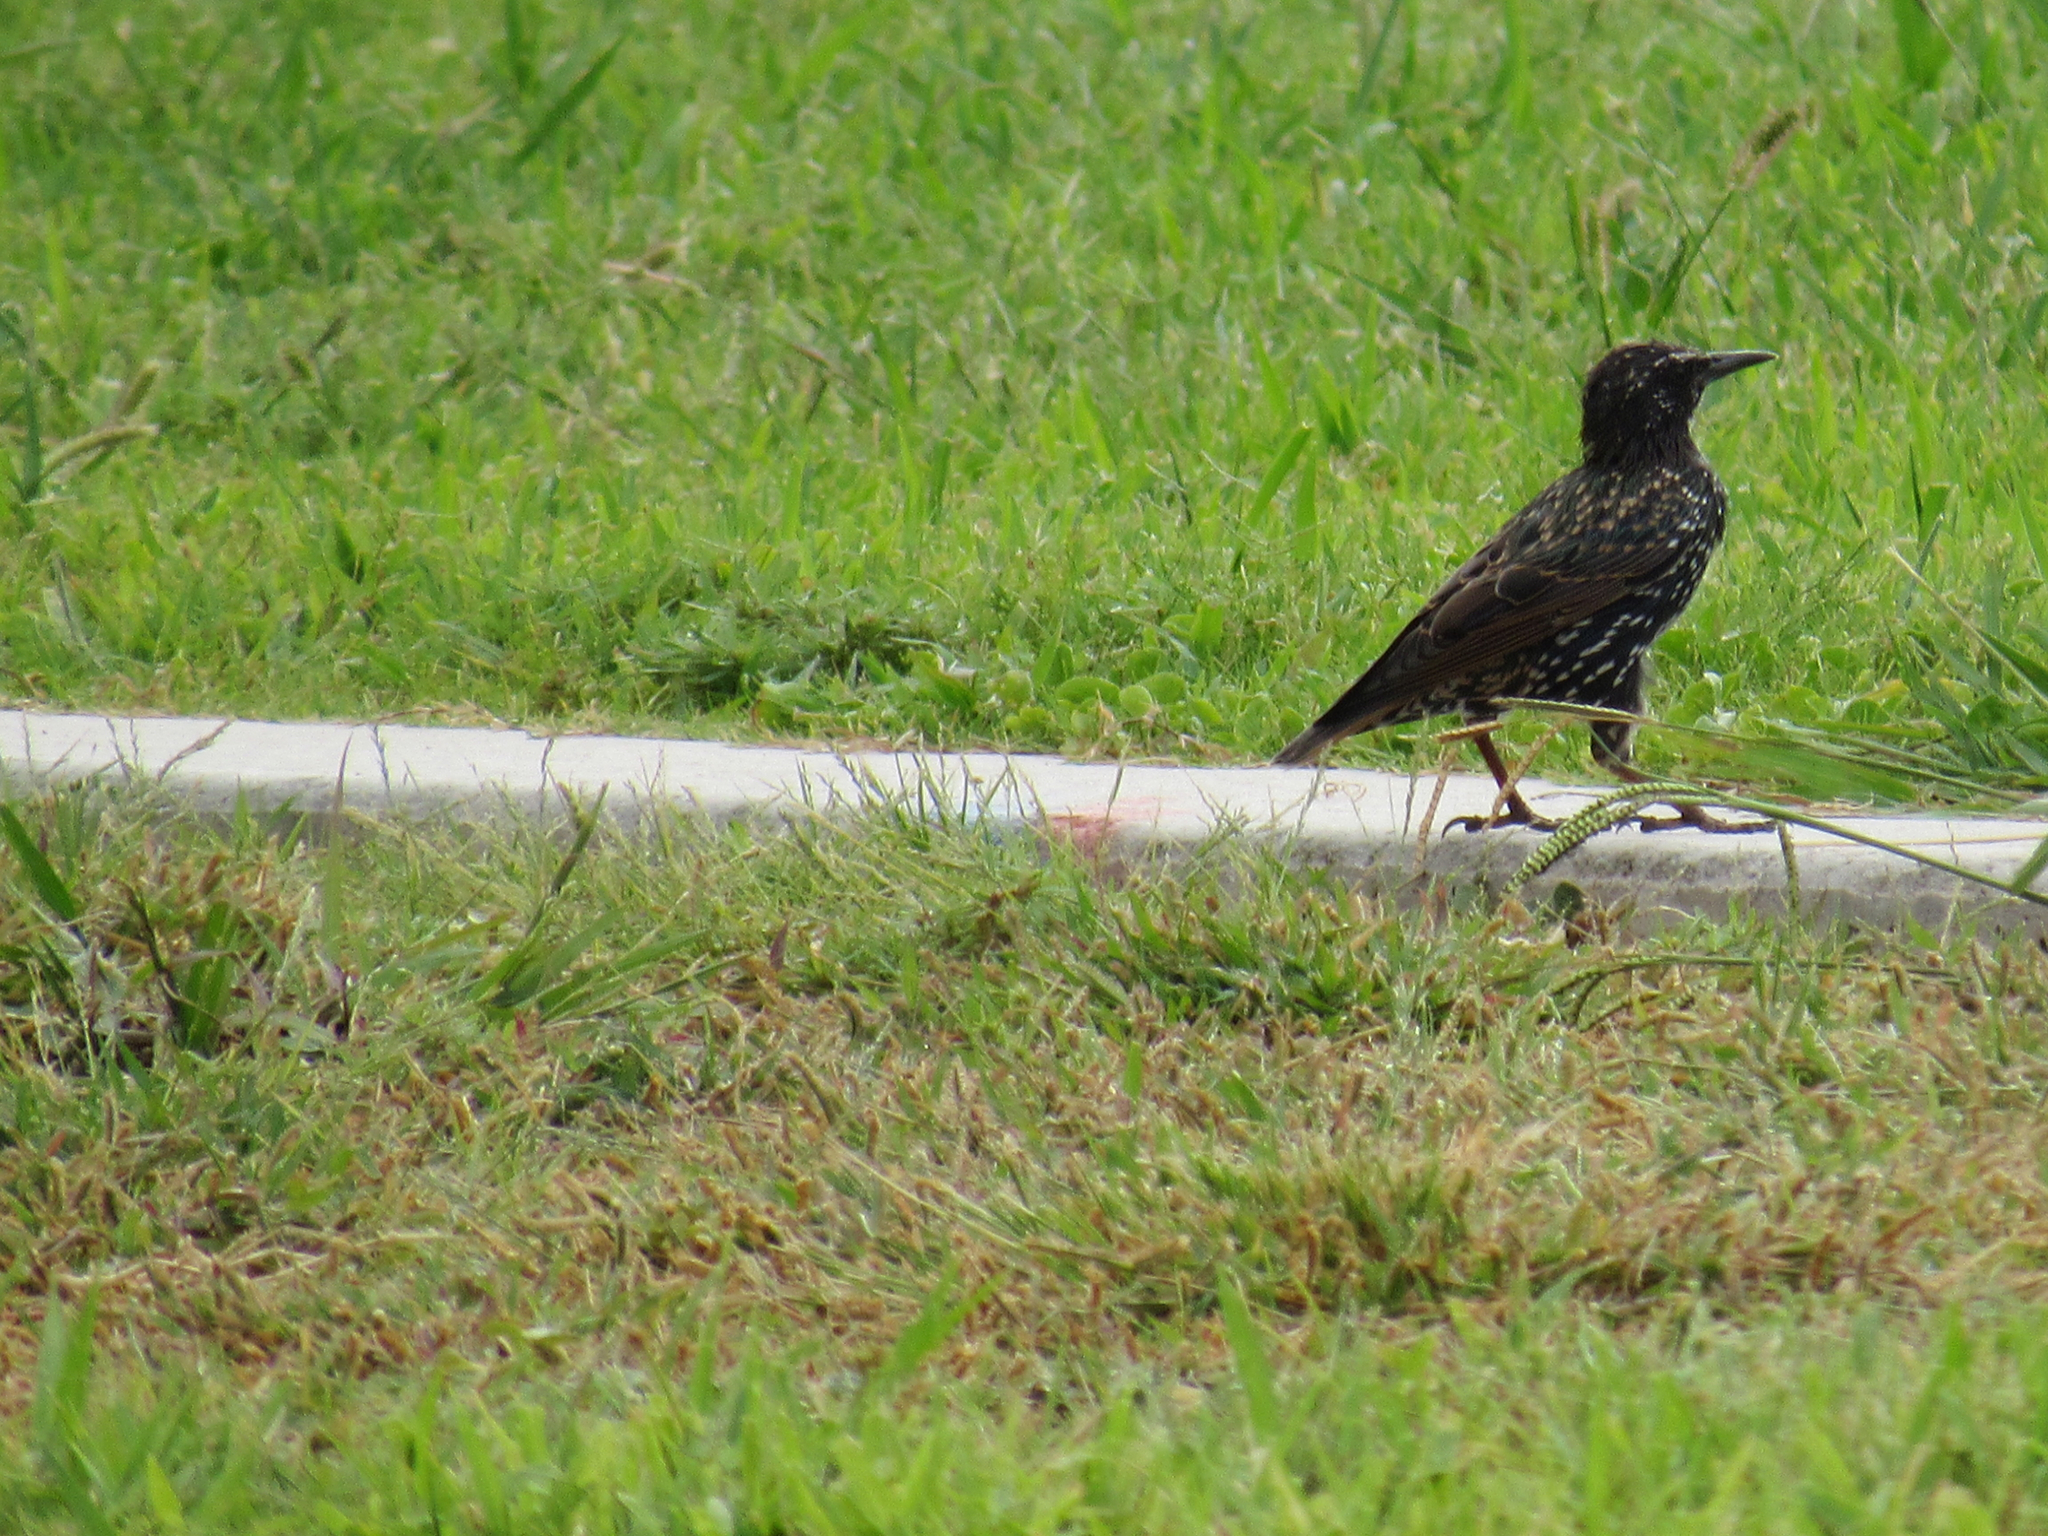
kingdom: Animalia
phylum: Chordata
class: Aves
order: Passeriformes
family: Sturnidae
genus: Sturnus
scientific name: Sturnus vulgaris
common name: Common starling
